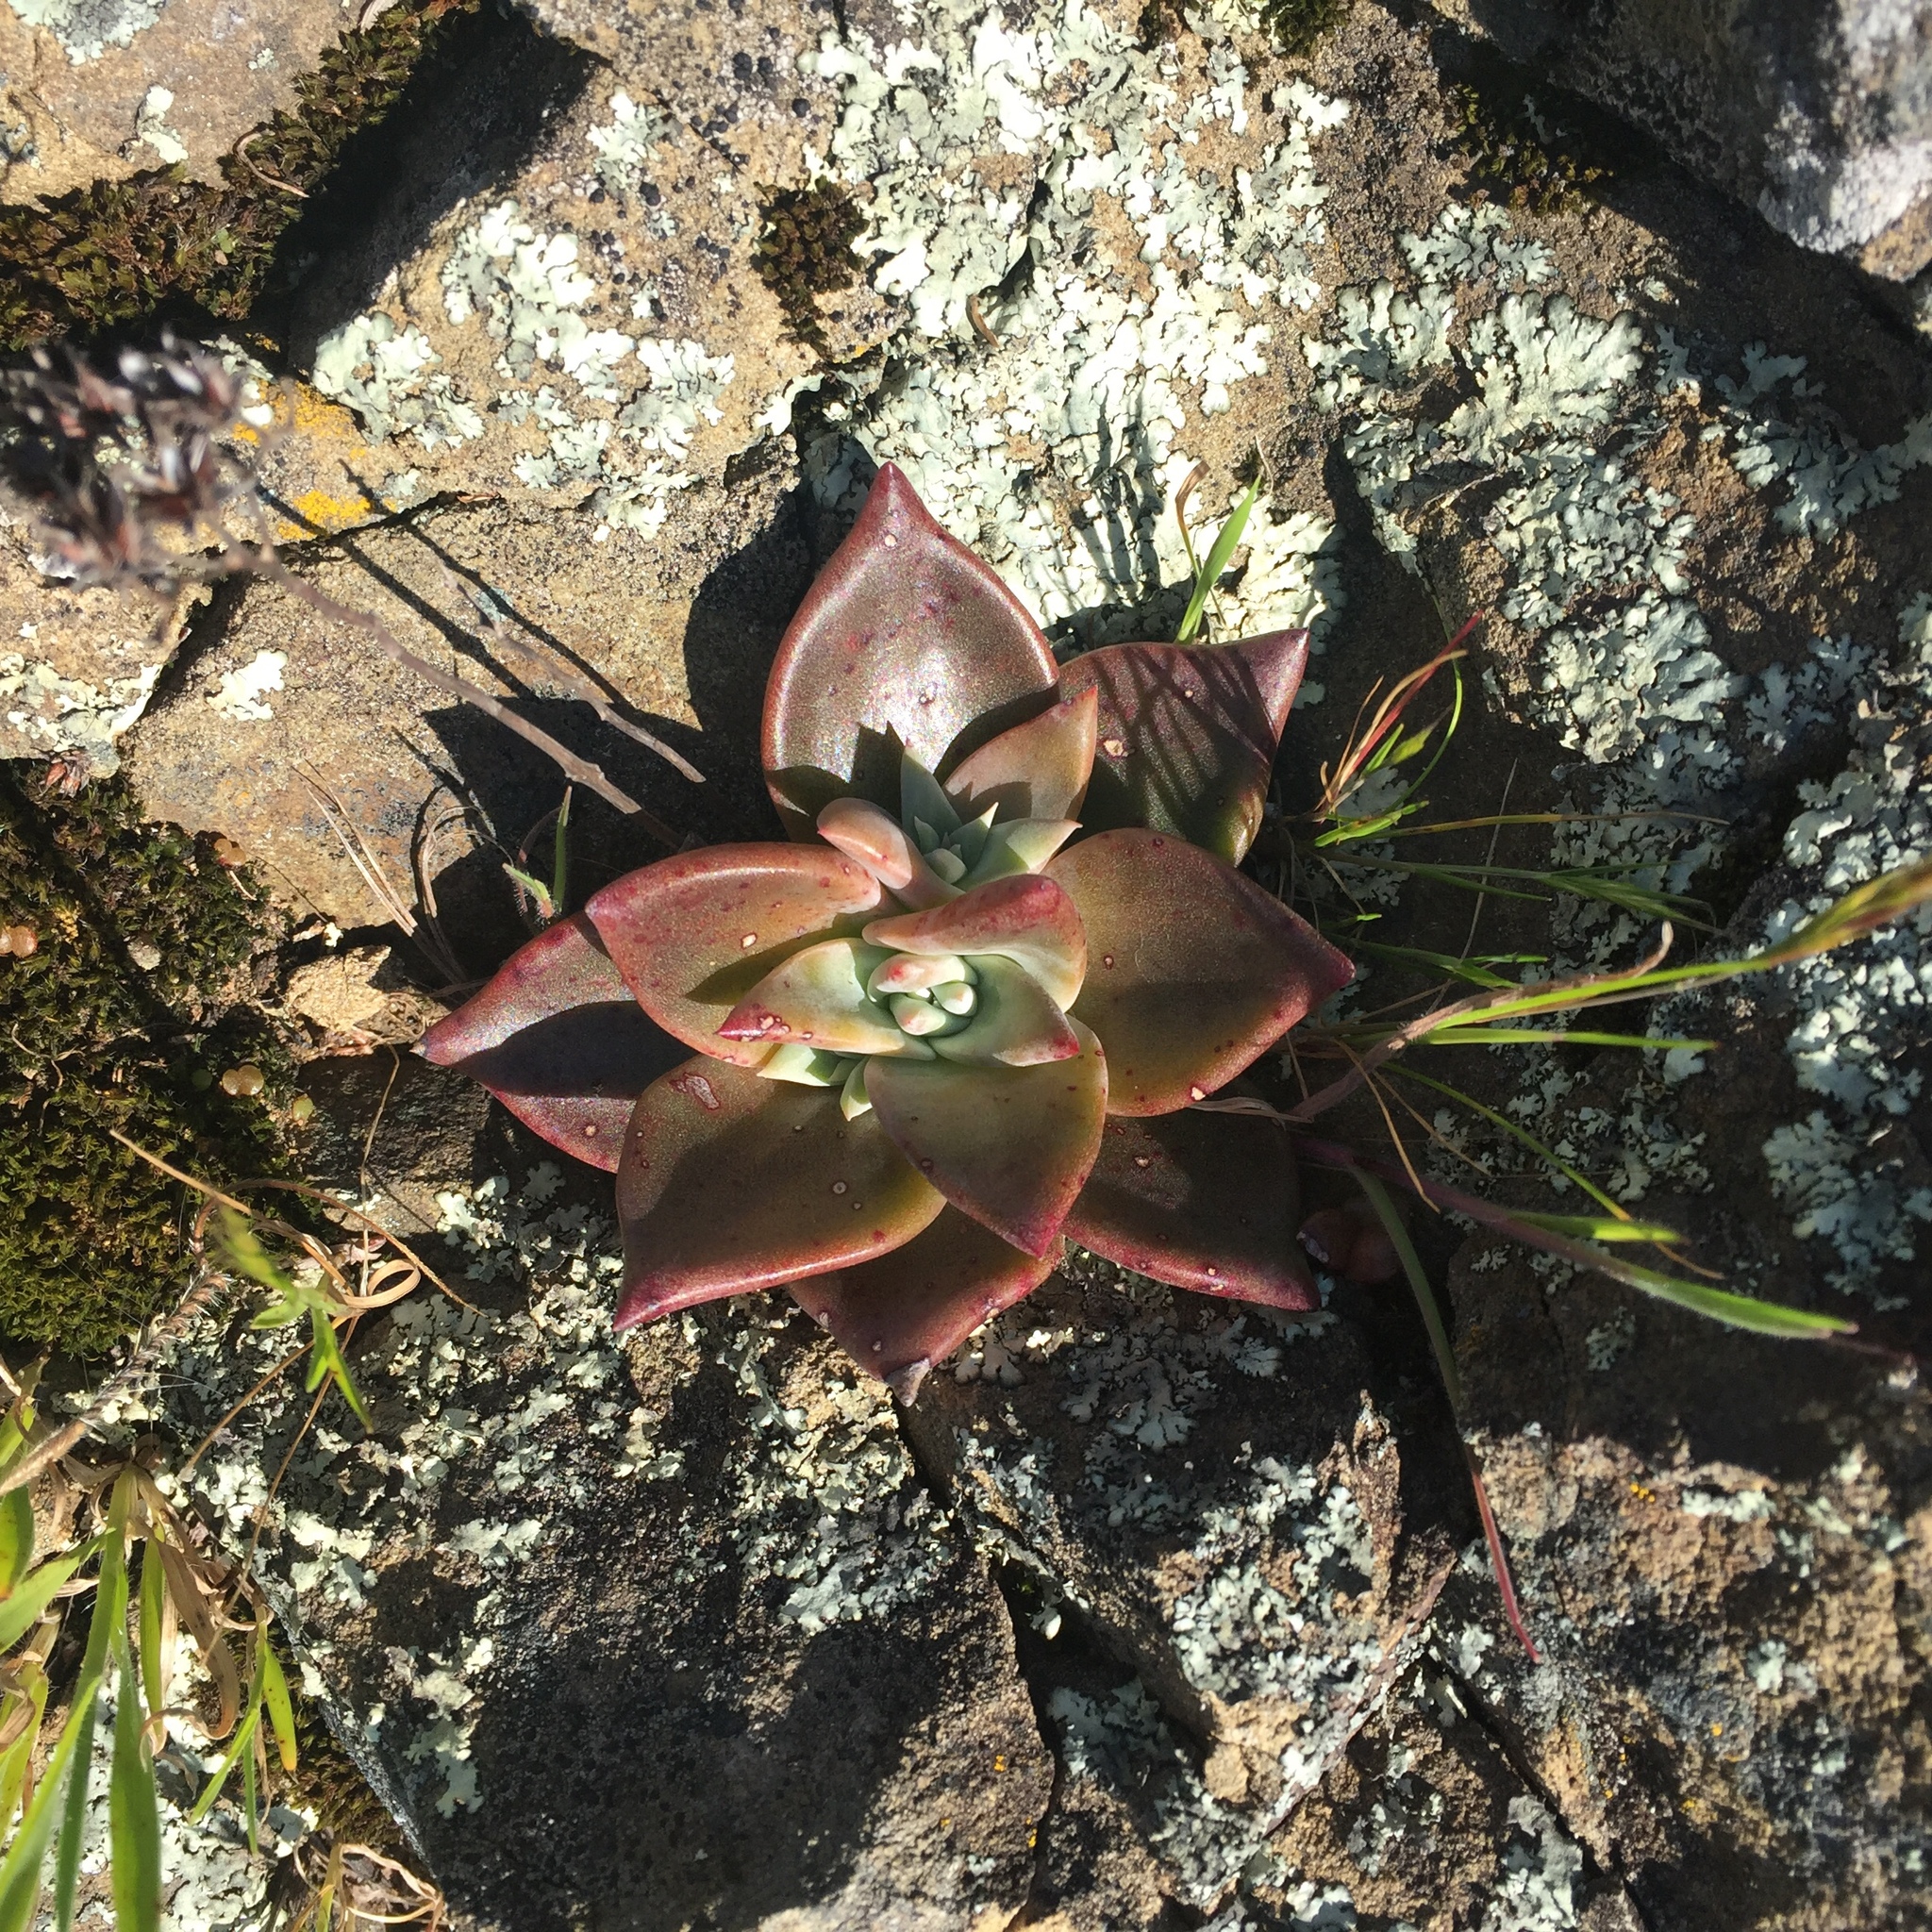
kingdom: Plantae
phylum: Tracheophyta
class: Magnoliopsida
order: Saxifragales
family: Crassulaceae
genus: Dudleya
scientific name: Dudleya cymosa
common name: Canyon dudleya
